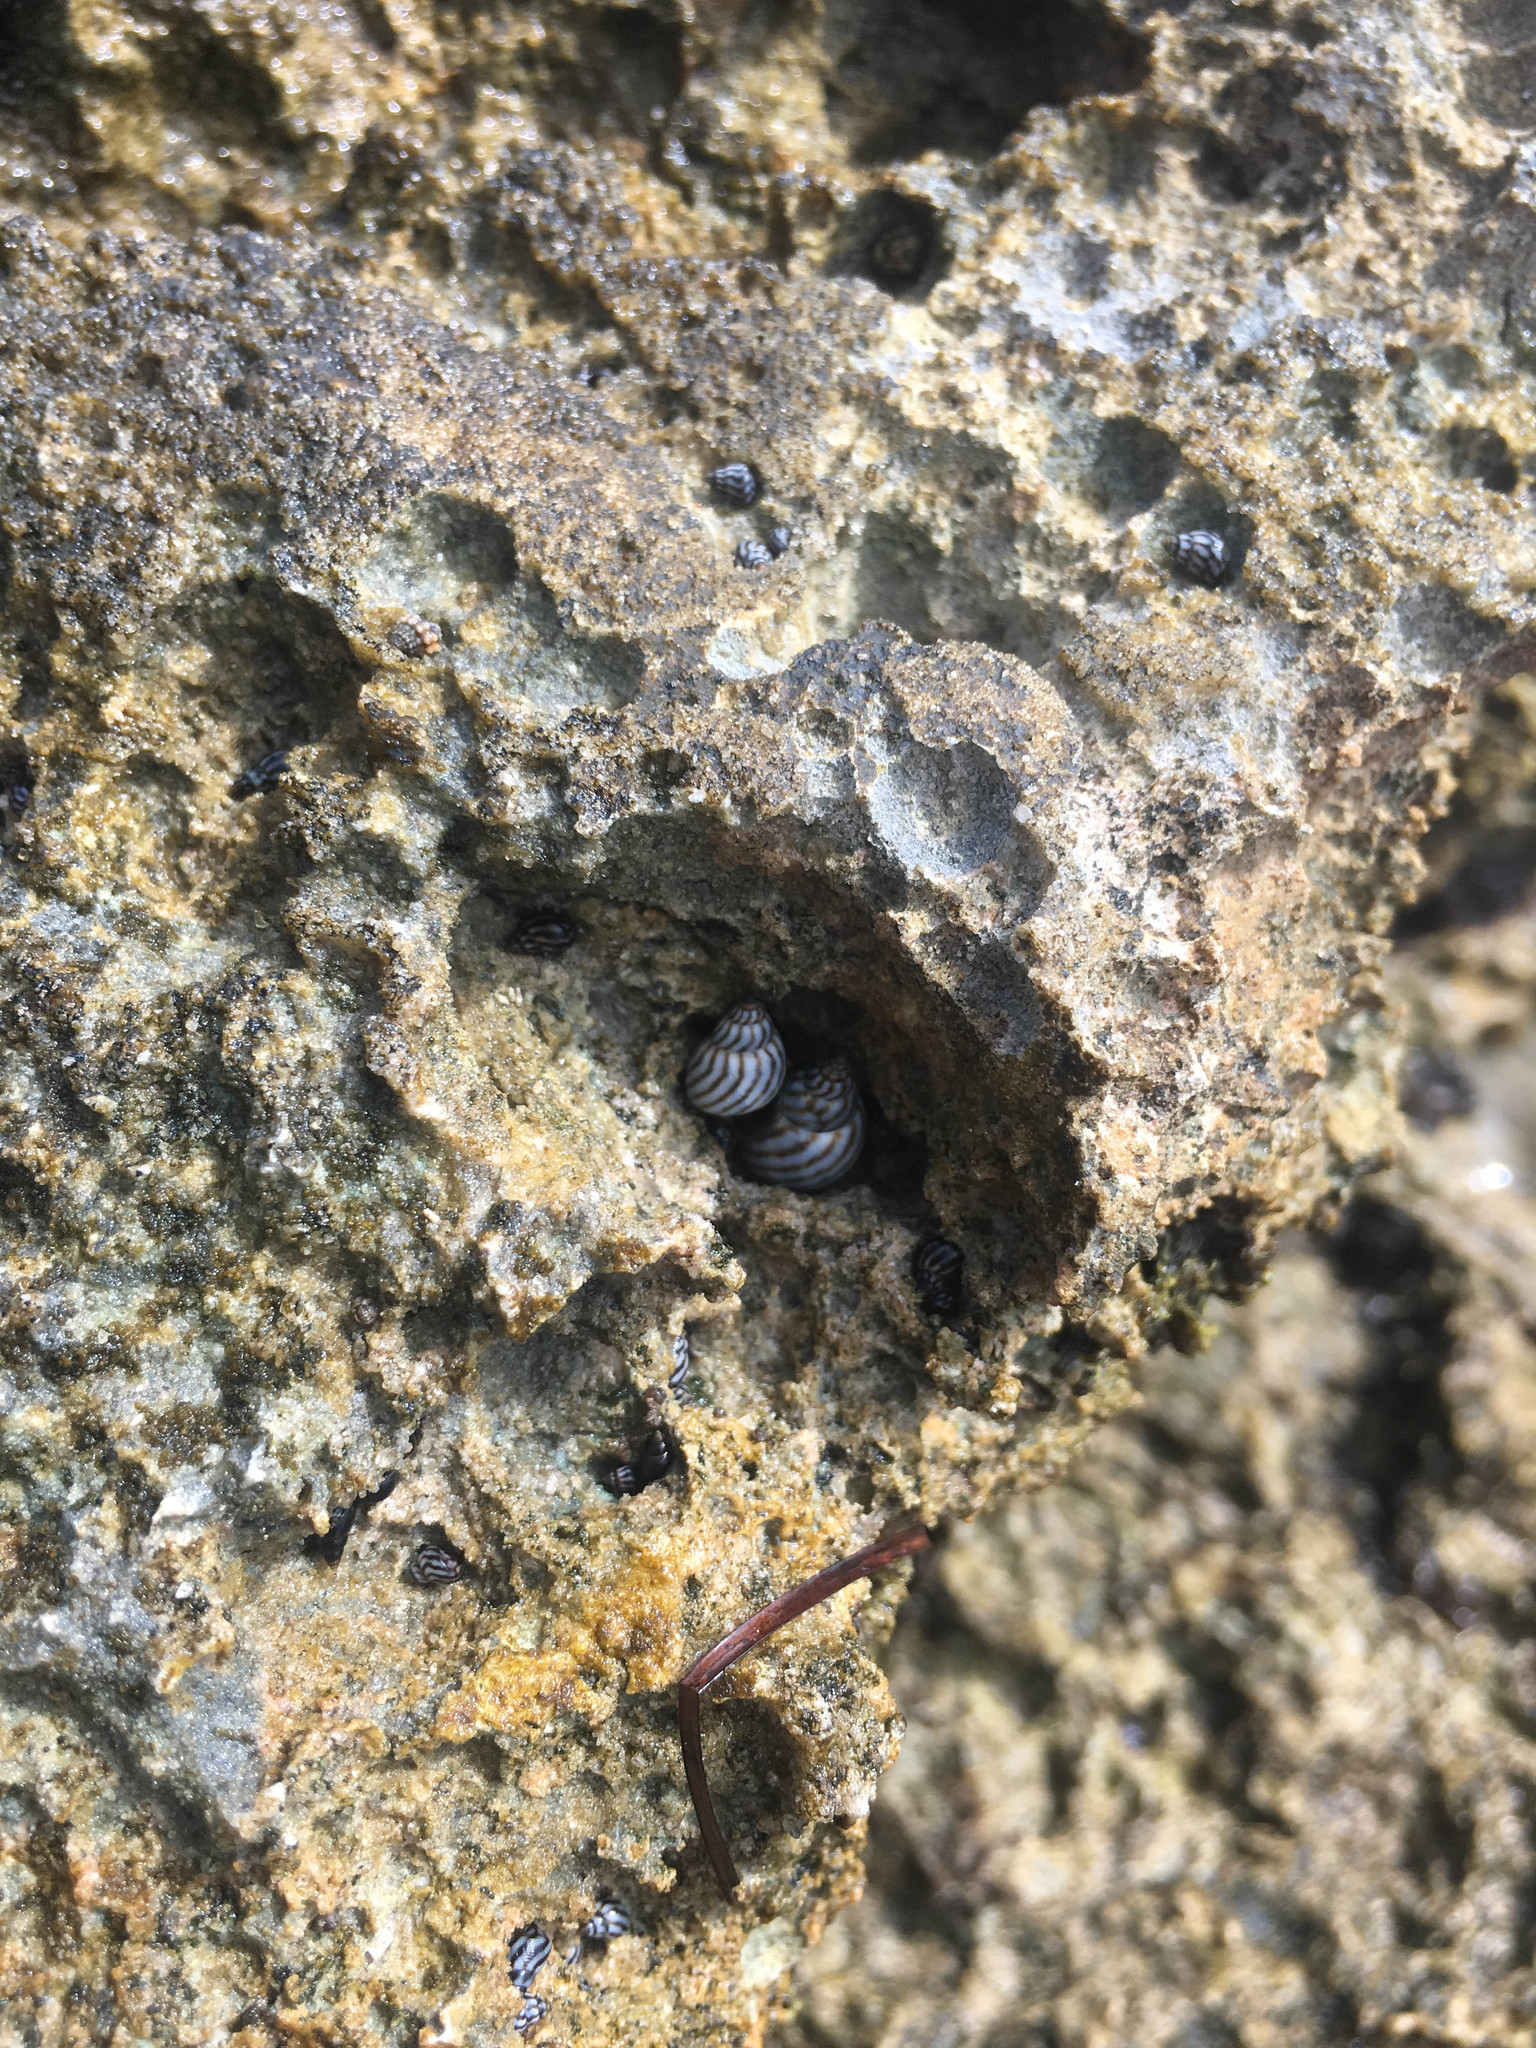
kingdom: Animalia
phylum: Mollusca
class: Gastropoda
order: Littorinimorpha
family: Littorinidae
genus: Echinolittorina
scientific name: Echinolittorina ziczac
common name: Zebra periwinkle
